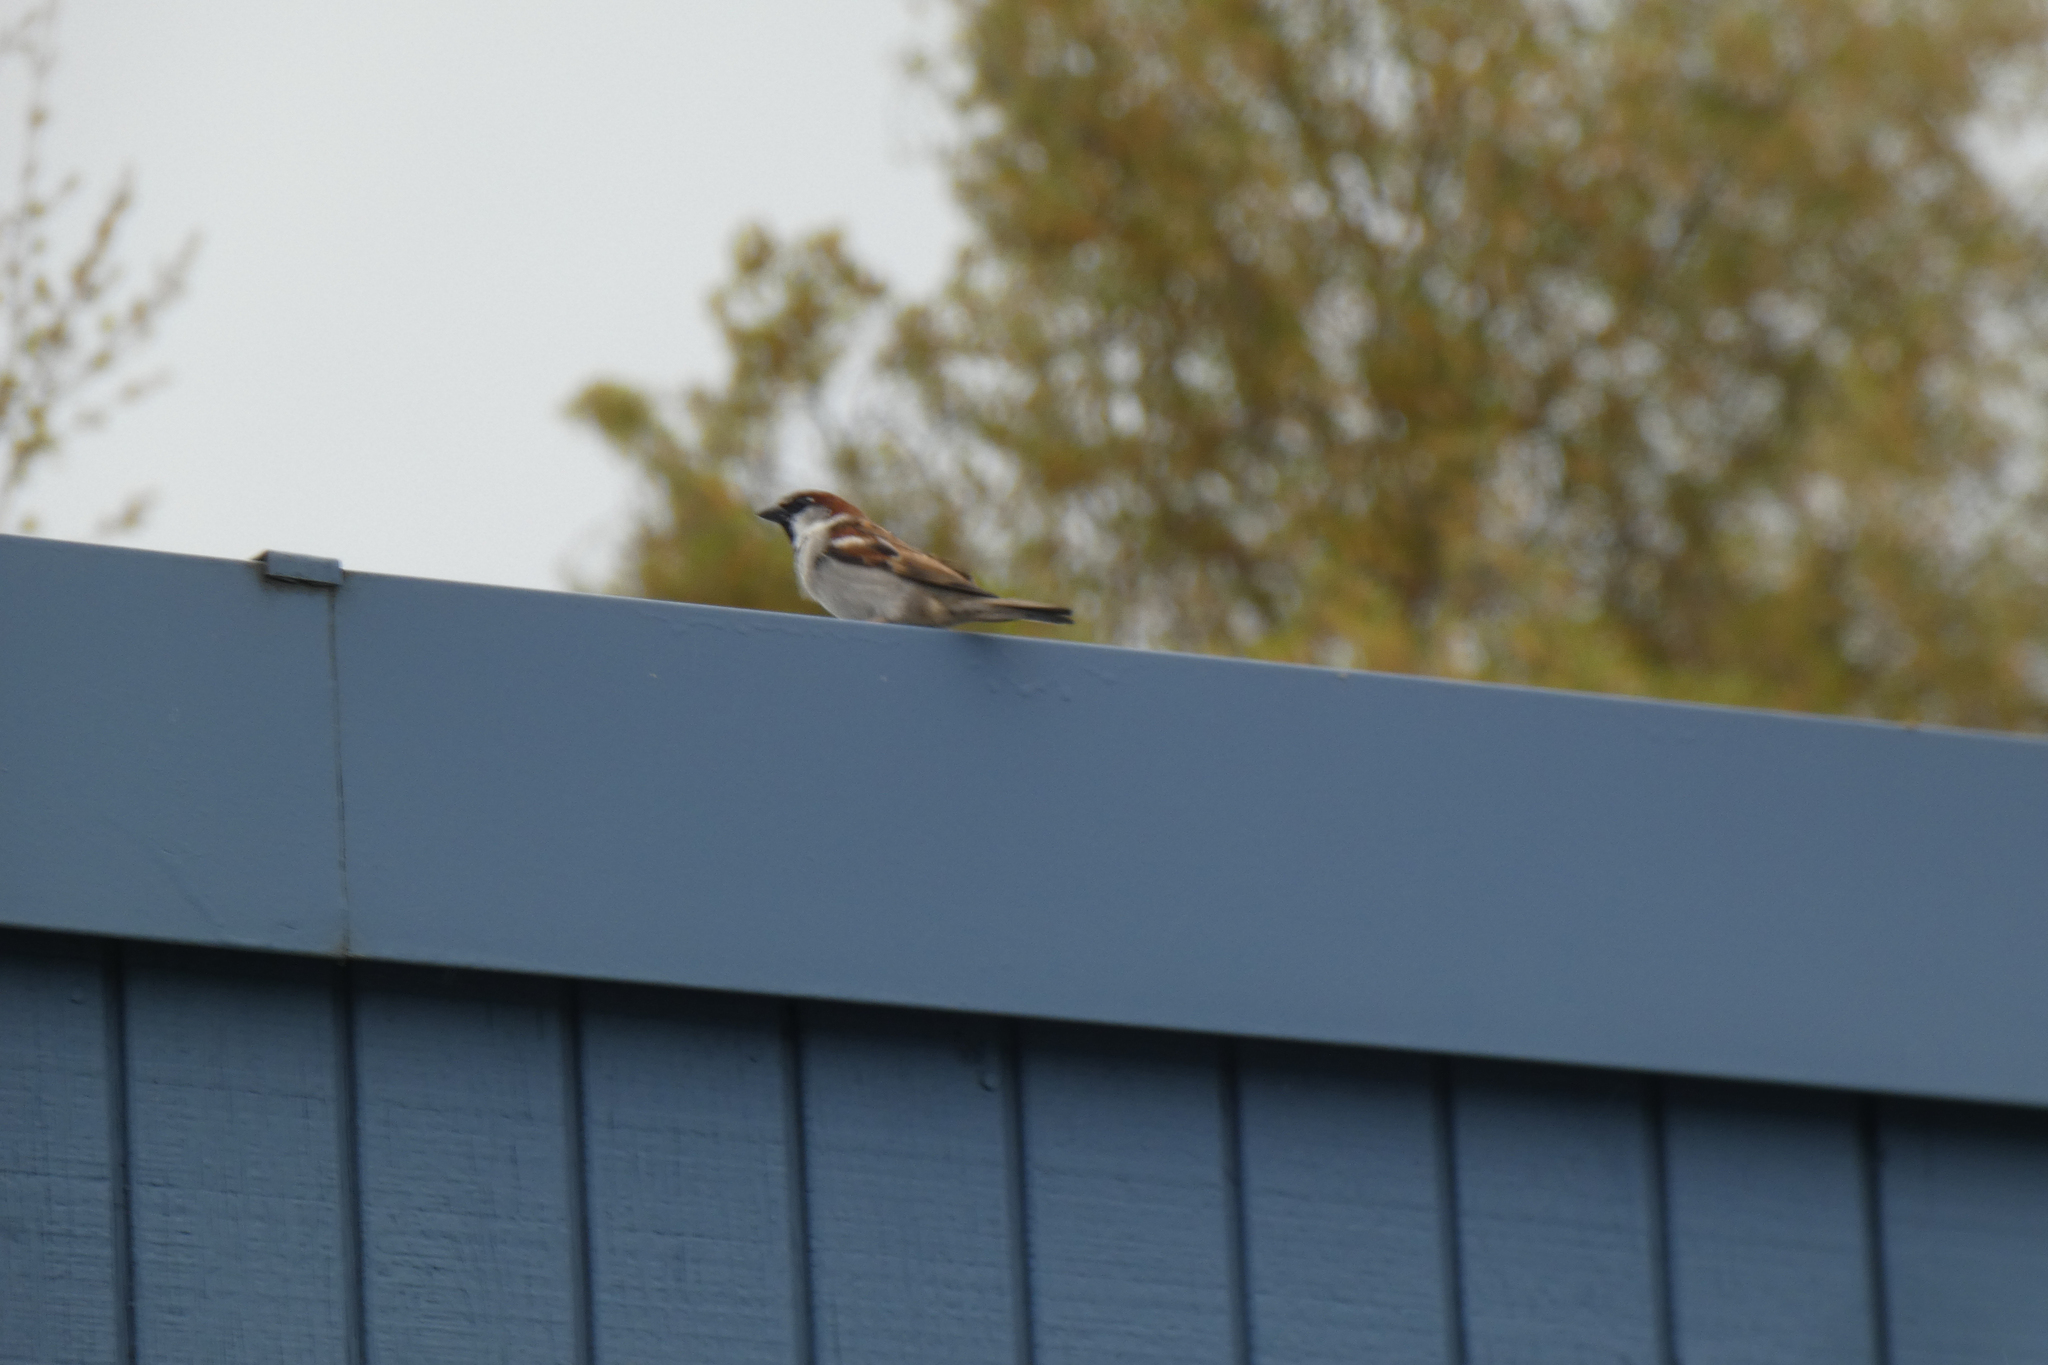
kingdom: Animalia
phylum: Chordata
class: Aves
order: Passeriformes
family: Passeridae
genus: Passer
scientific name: Passer domesticus
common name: House sparrow
